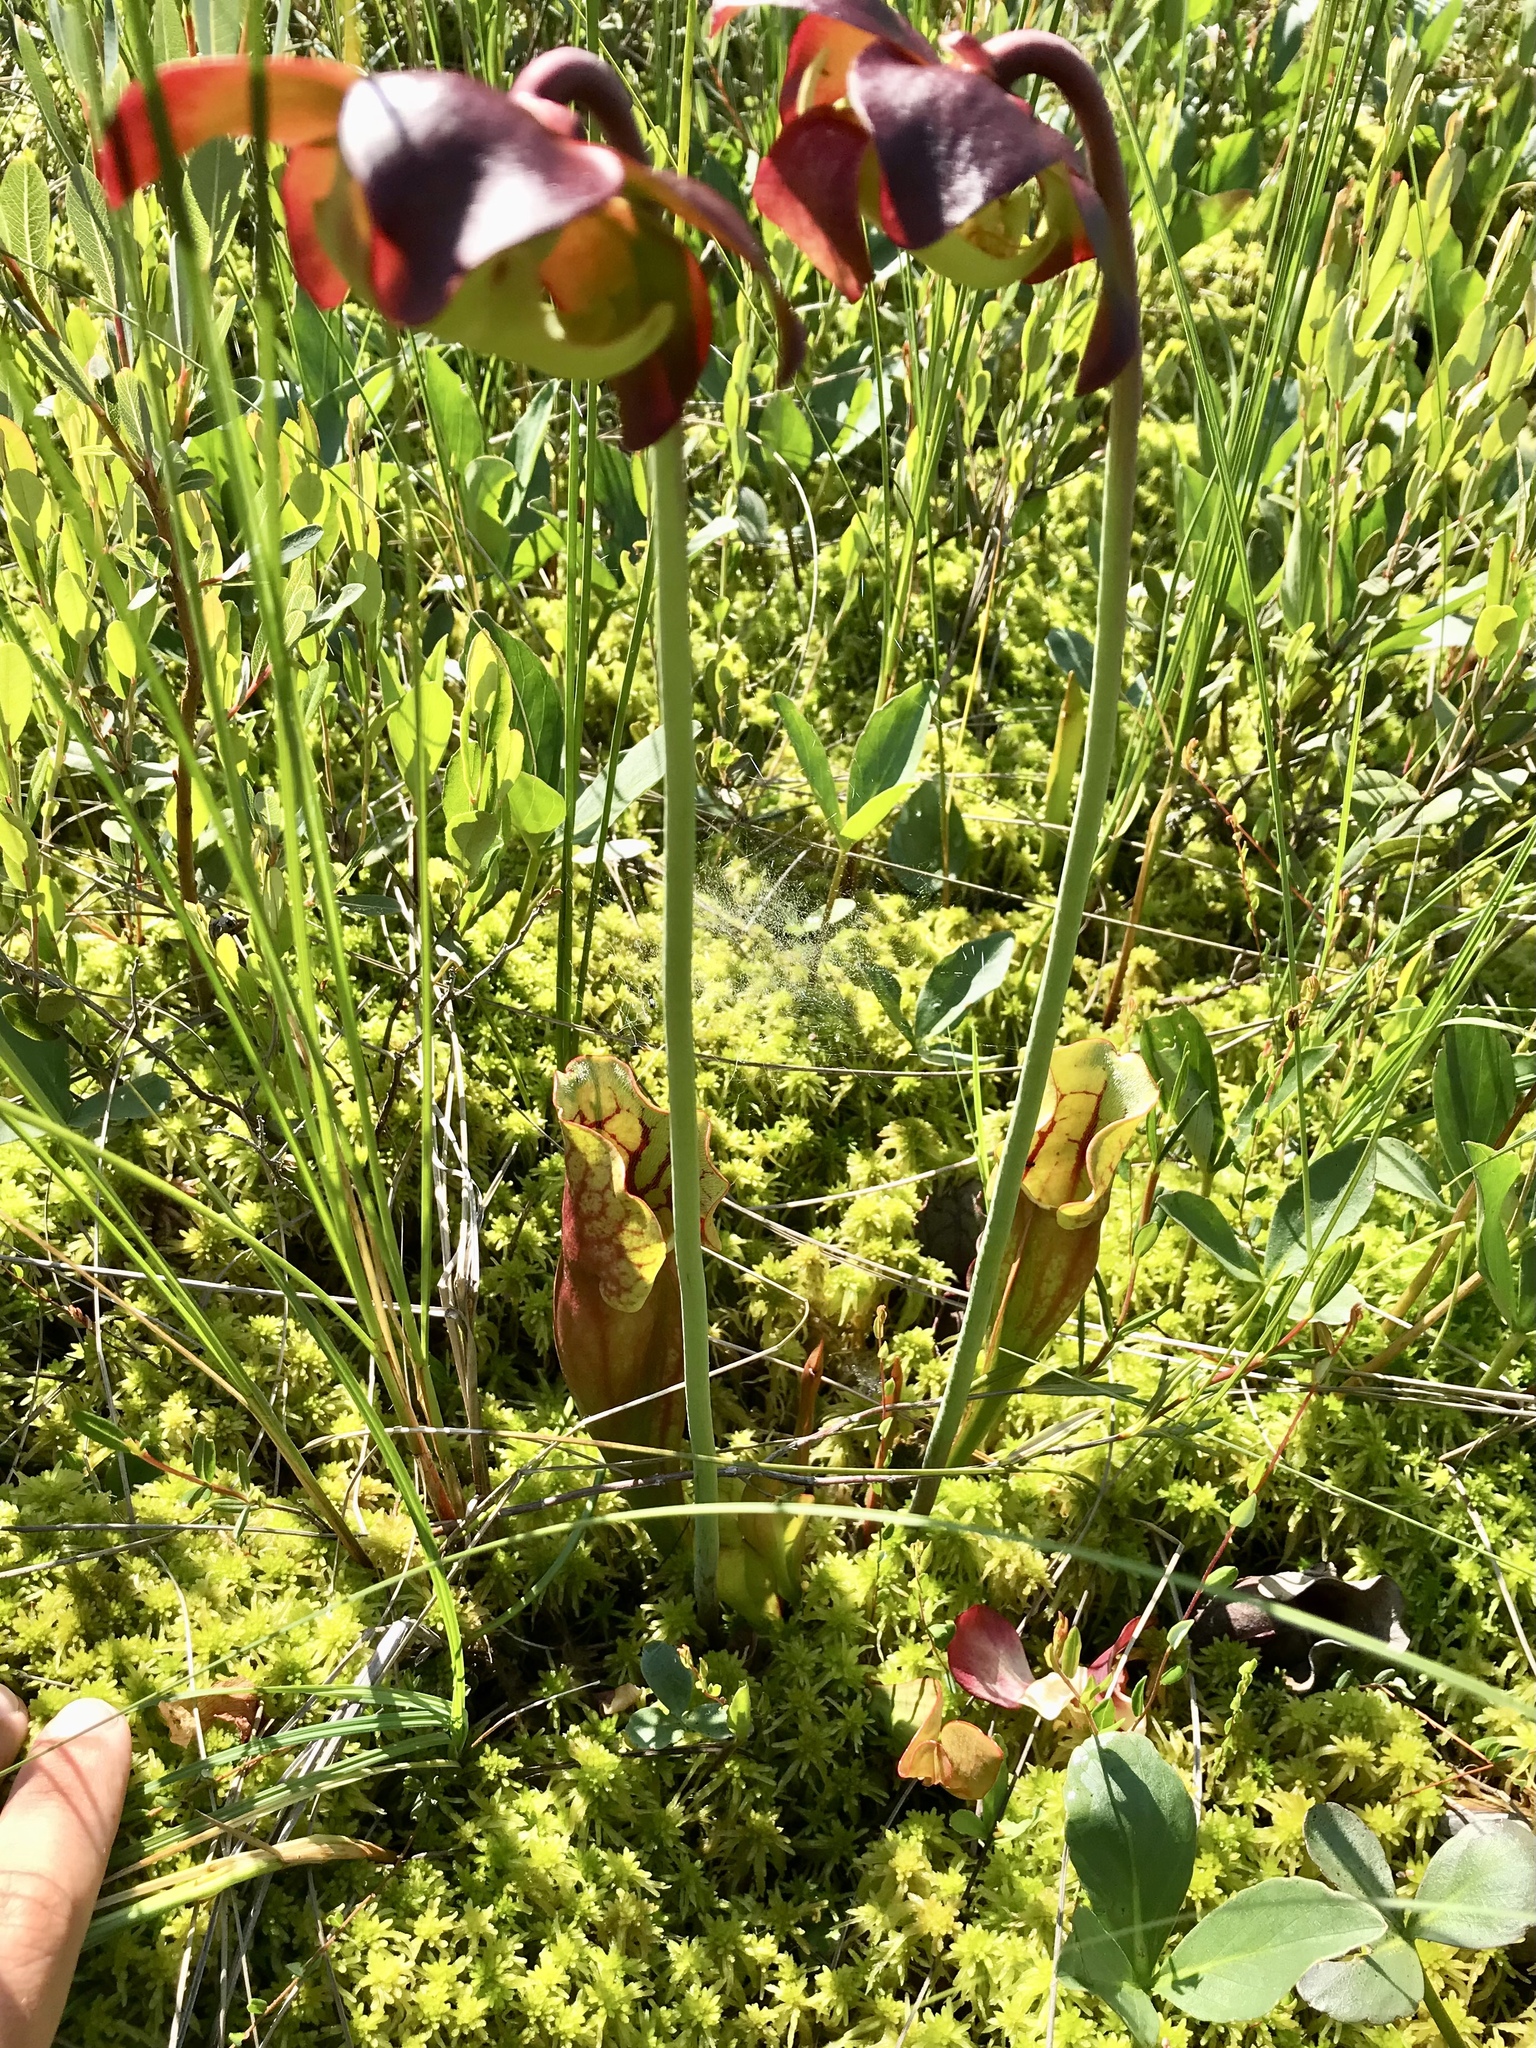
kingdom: Plantae
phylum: Tracheophyta
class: Magnoliopsida
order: Ericales
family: Sarraceniaceae
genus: Sarracenia
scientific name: Sarracenia purpurea
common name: Pitcherplant
